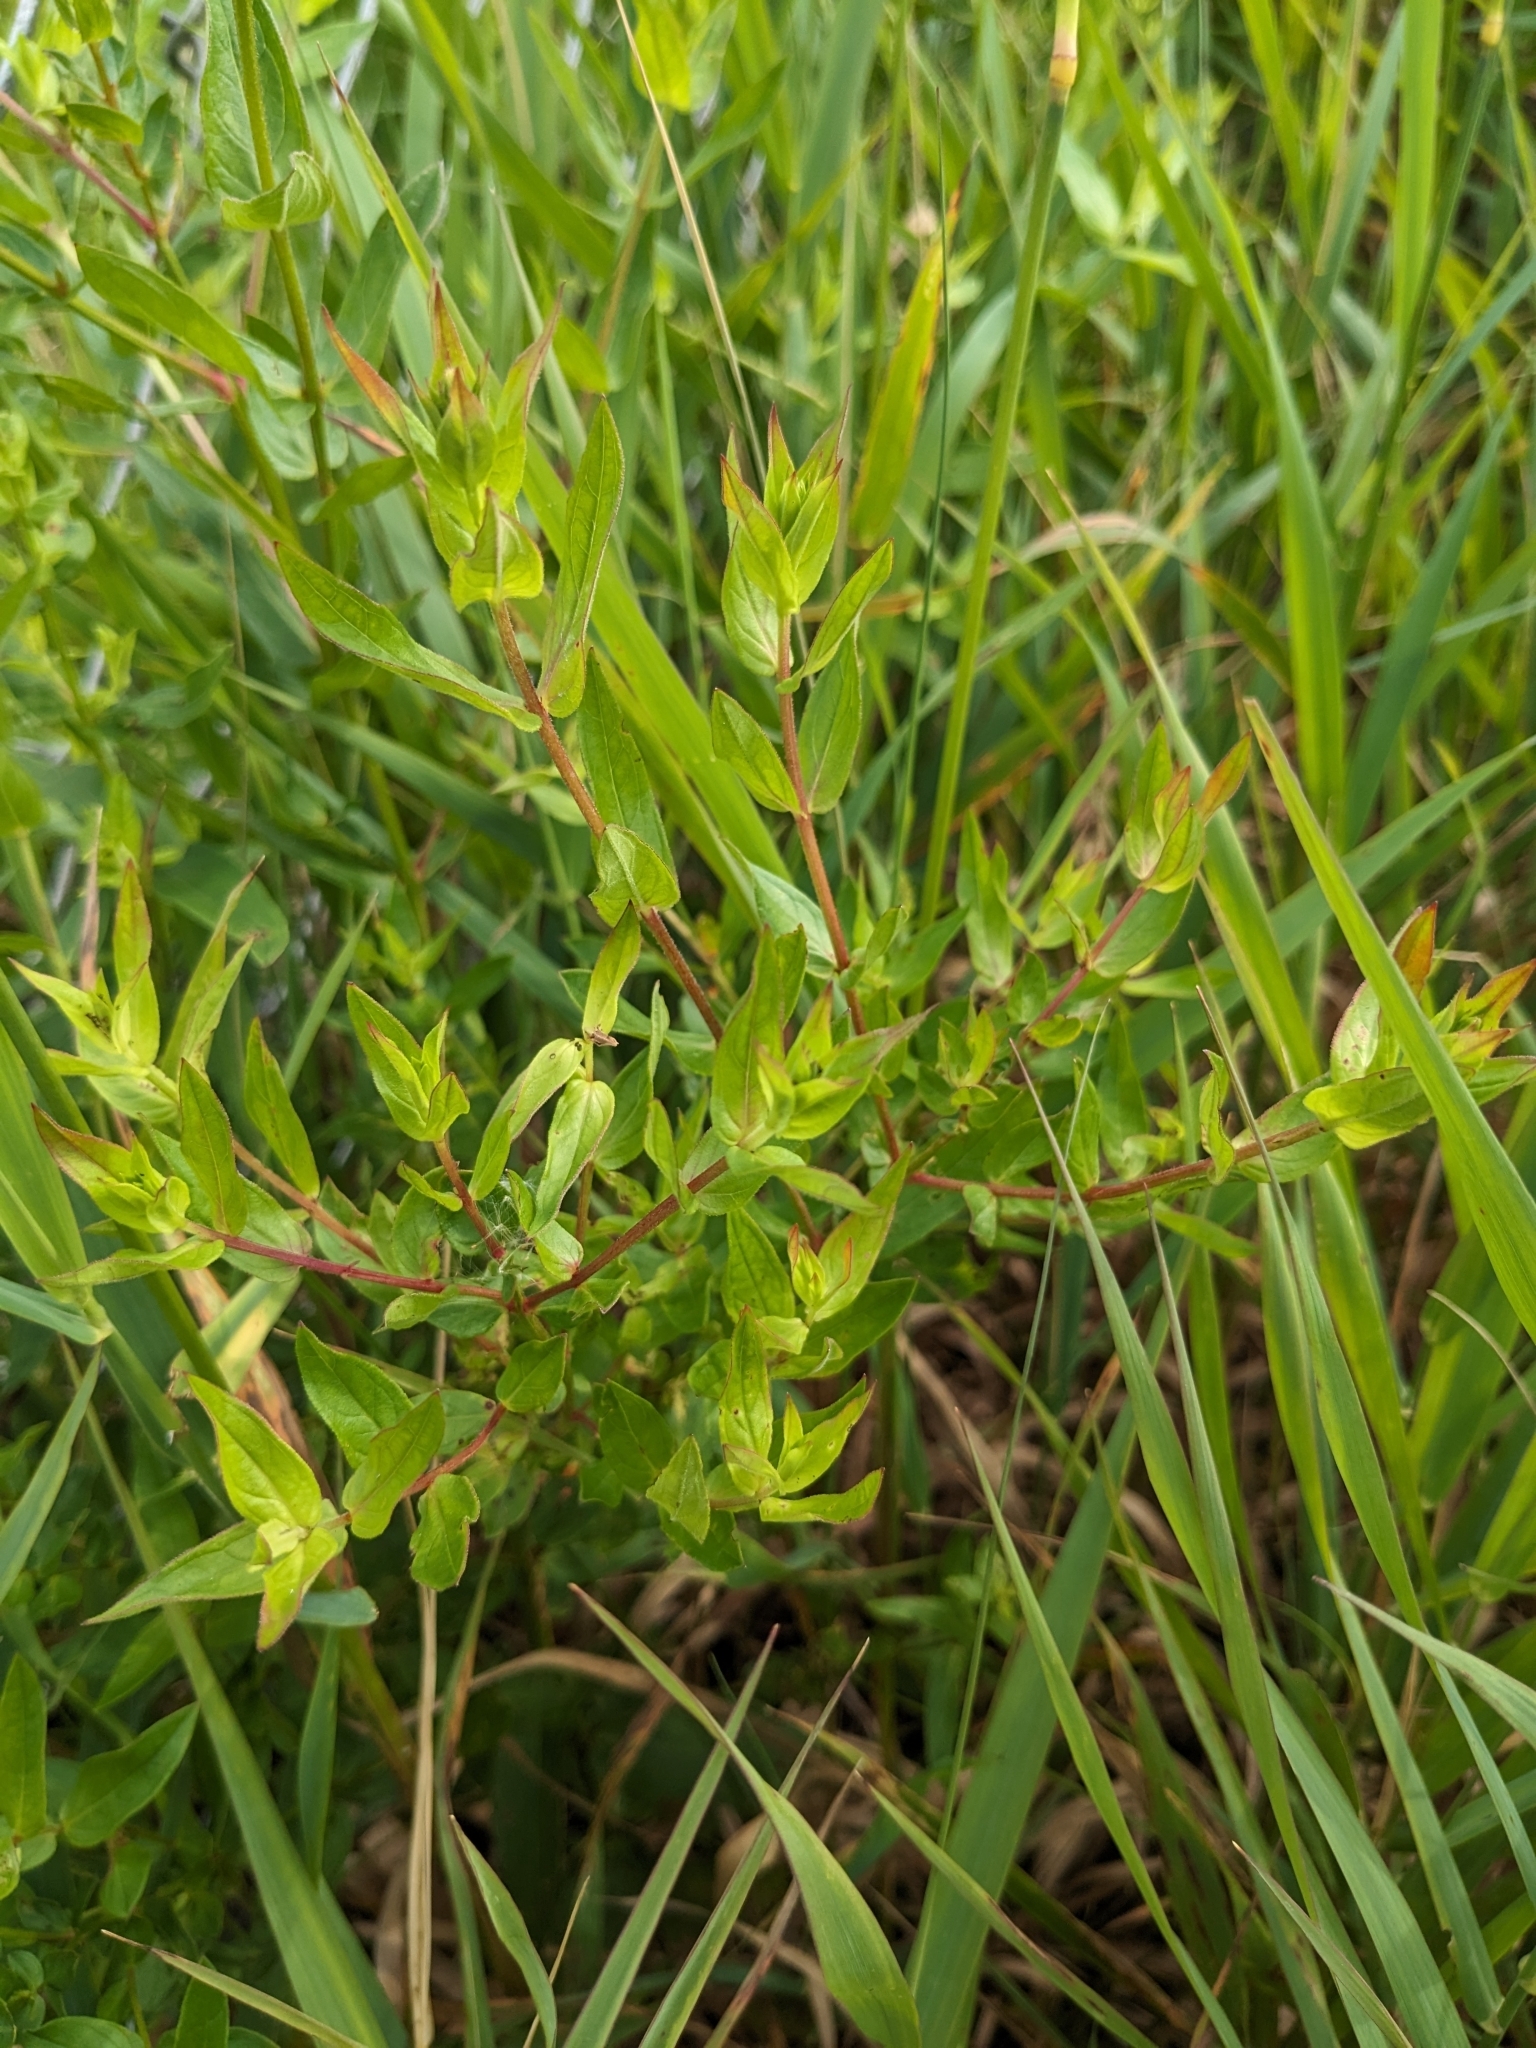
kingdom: Plantae
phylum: Tracheophyta
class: Magnoliopsida
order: Myrtales
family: Lythraceae
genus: Lythrum
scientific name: Lythrum salicaria
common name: Purple loosestrife
